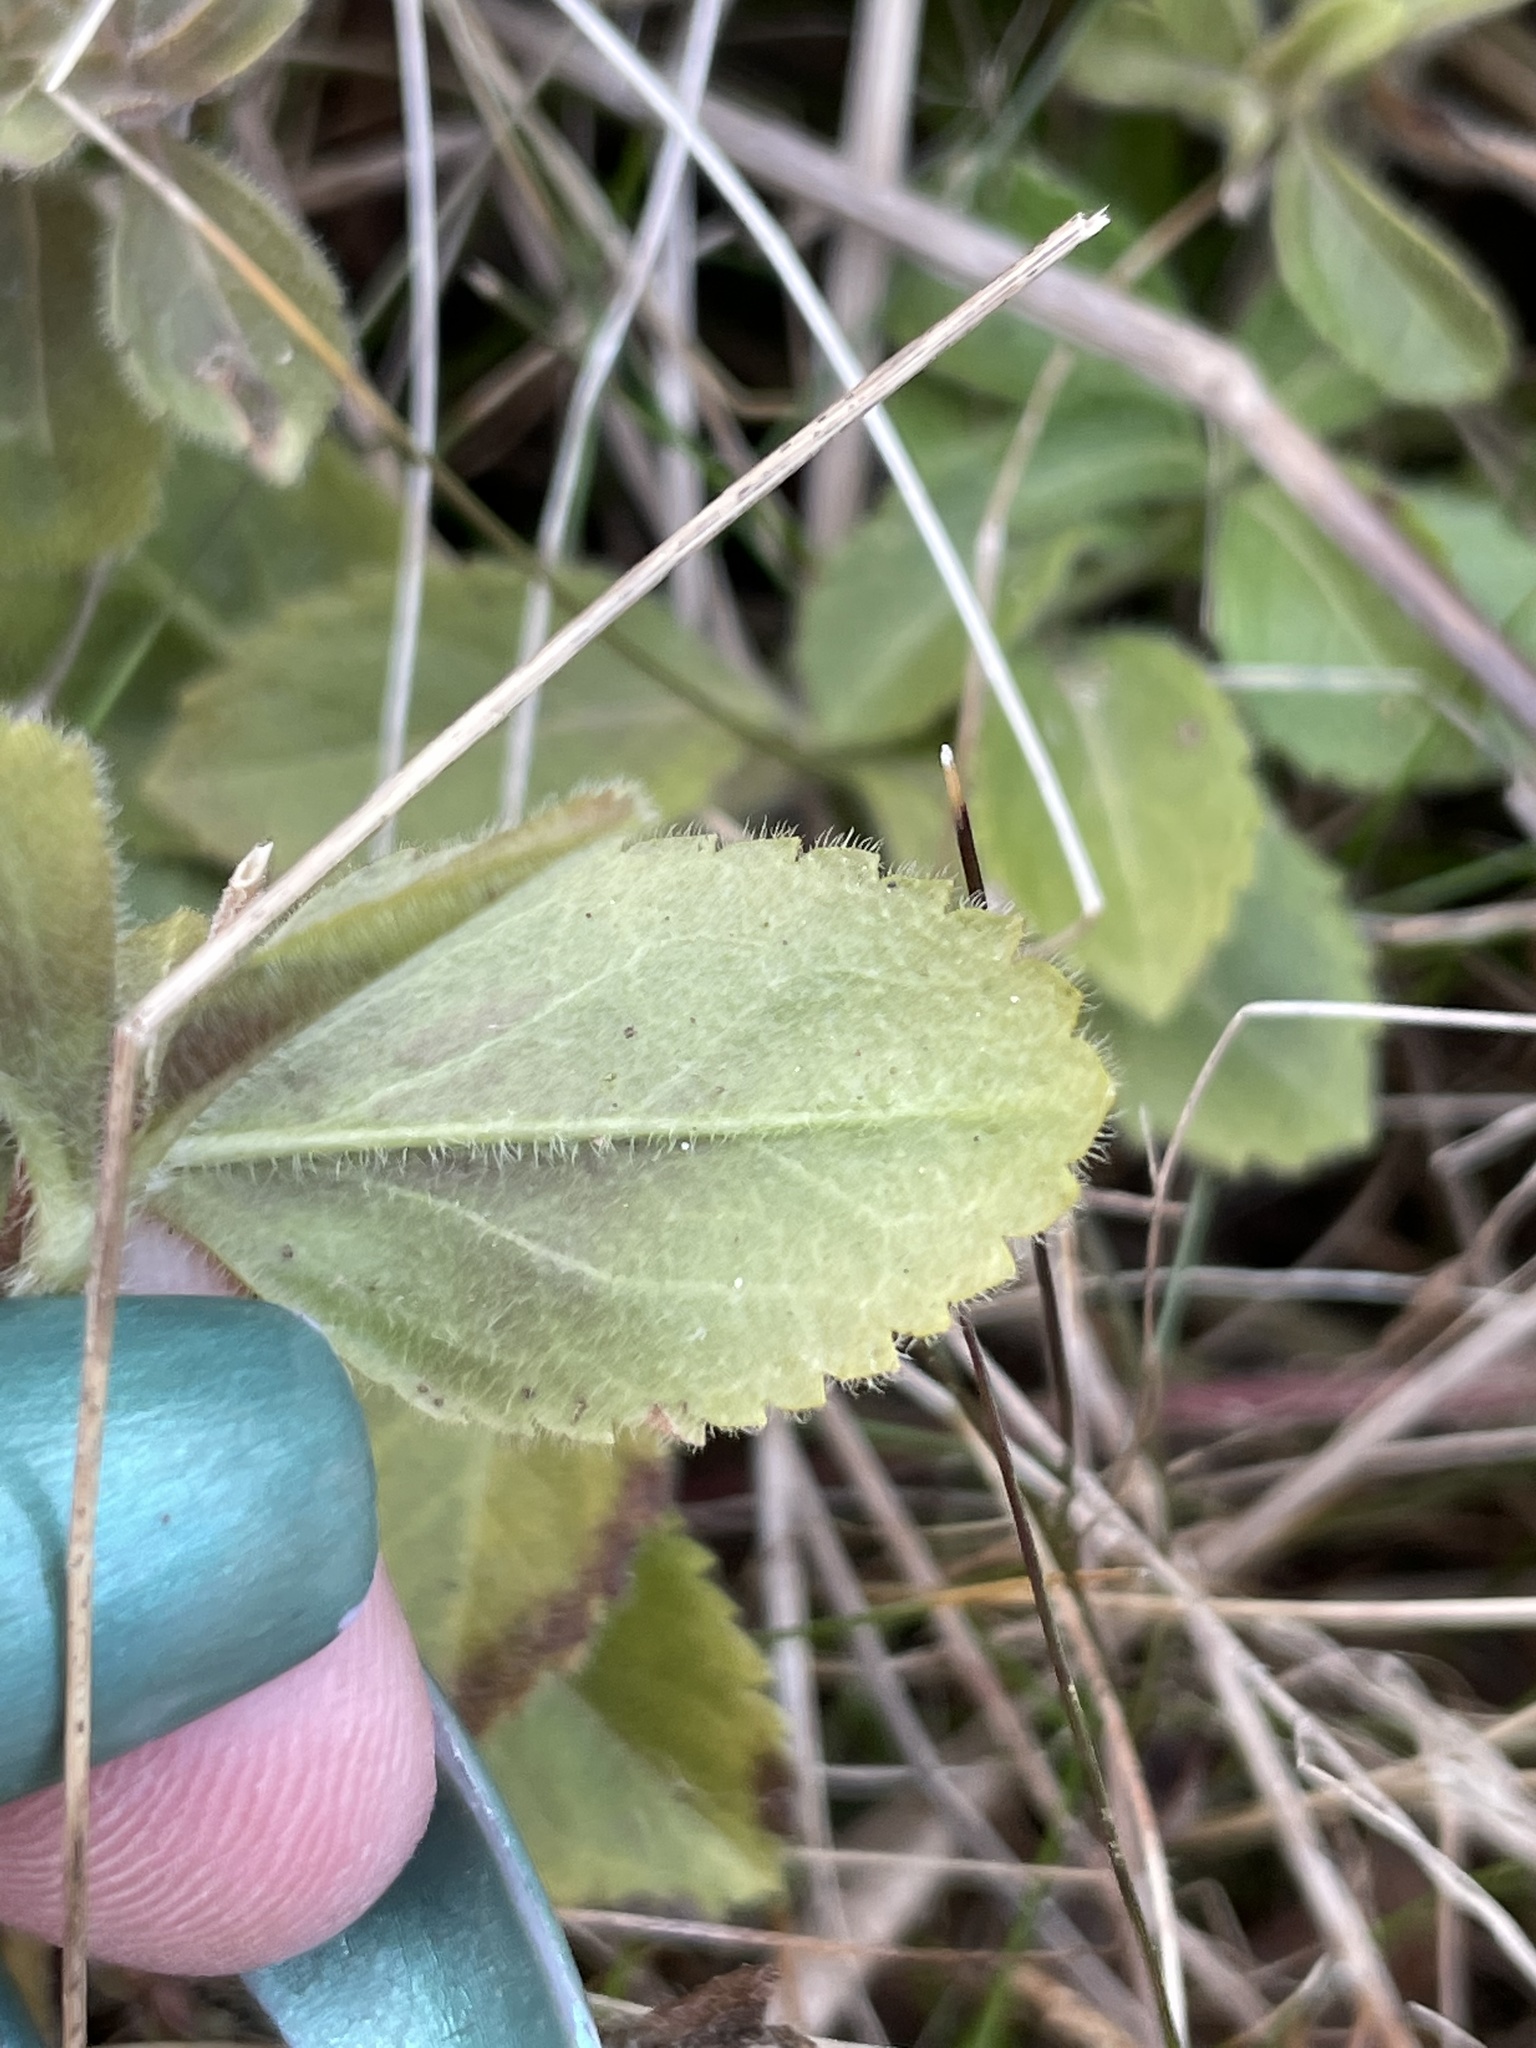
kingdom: Plantae
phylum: Tracheophyta
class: Magnoliopsida
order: Lamiales
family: Plantaginaceae
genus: Veronica
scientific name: Veronica officinalis
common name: Common speedwell
